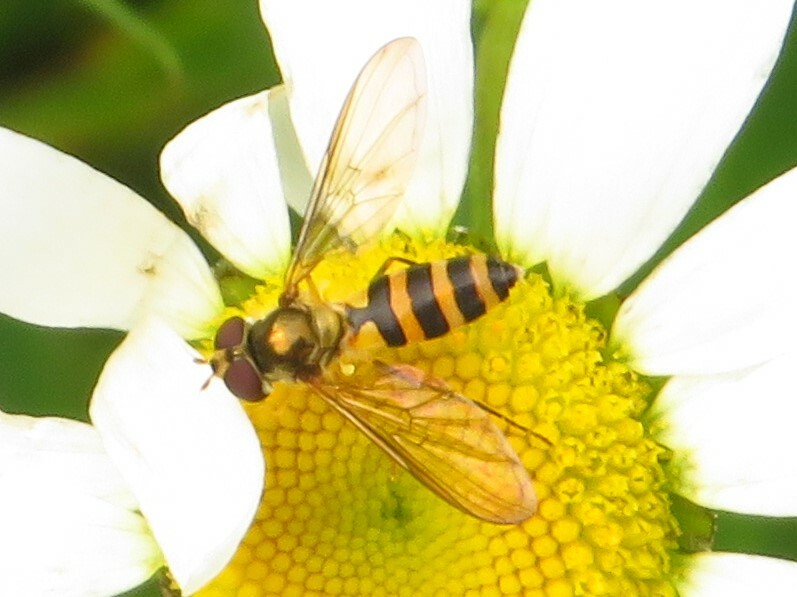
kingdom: Animalia
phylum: Arthropoda
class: Insecta
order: Diptera
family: Syrphidae
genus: Meliscaeva
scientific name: Meliscaeva cinctella
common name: American thintail fly
